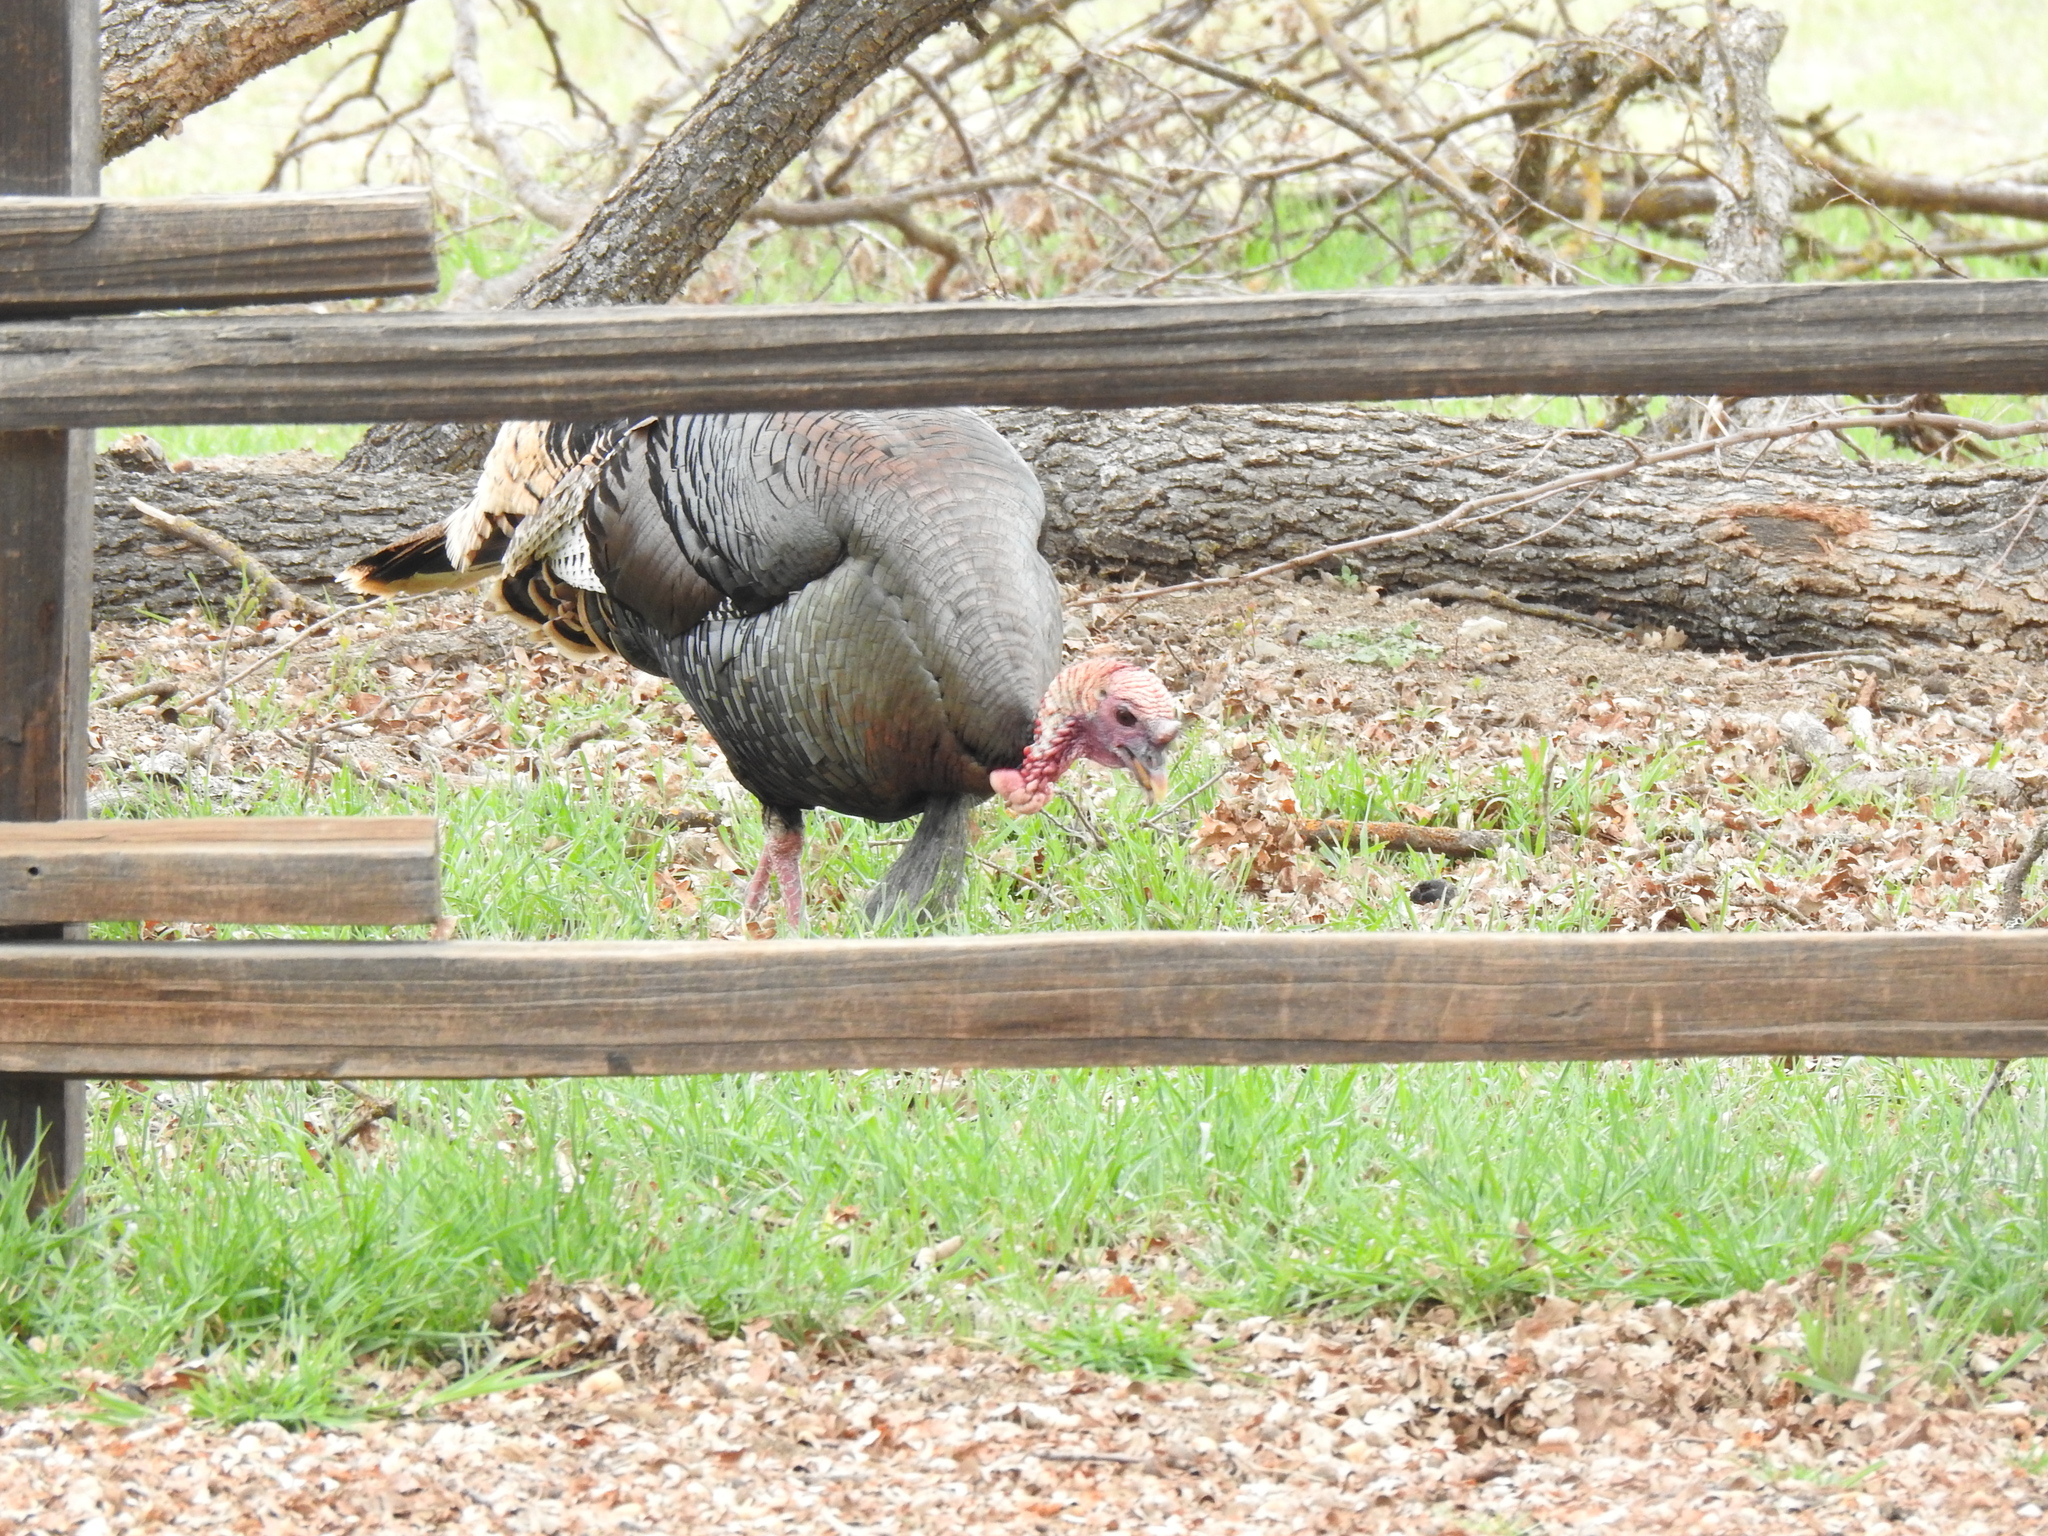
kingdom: Animalia
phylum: Chordata
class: Aves
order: Galliformes
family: Phasianidae
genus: Meleagris
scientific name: Meleagris gallopavo
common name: Wild turkey
